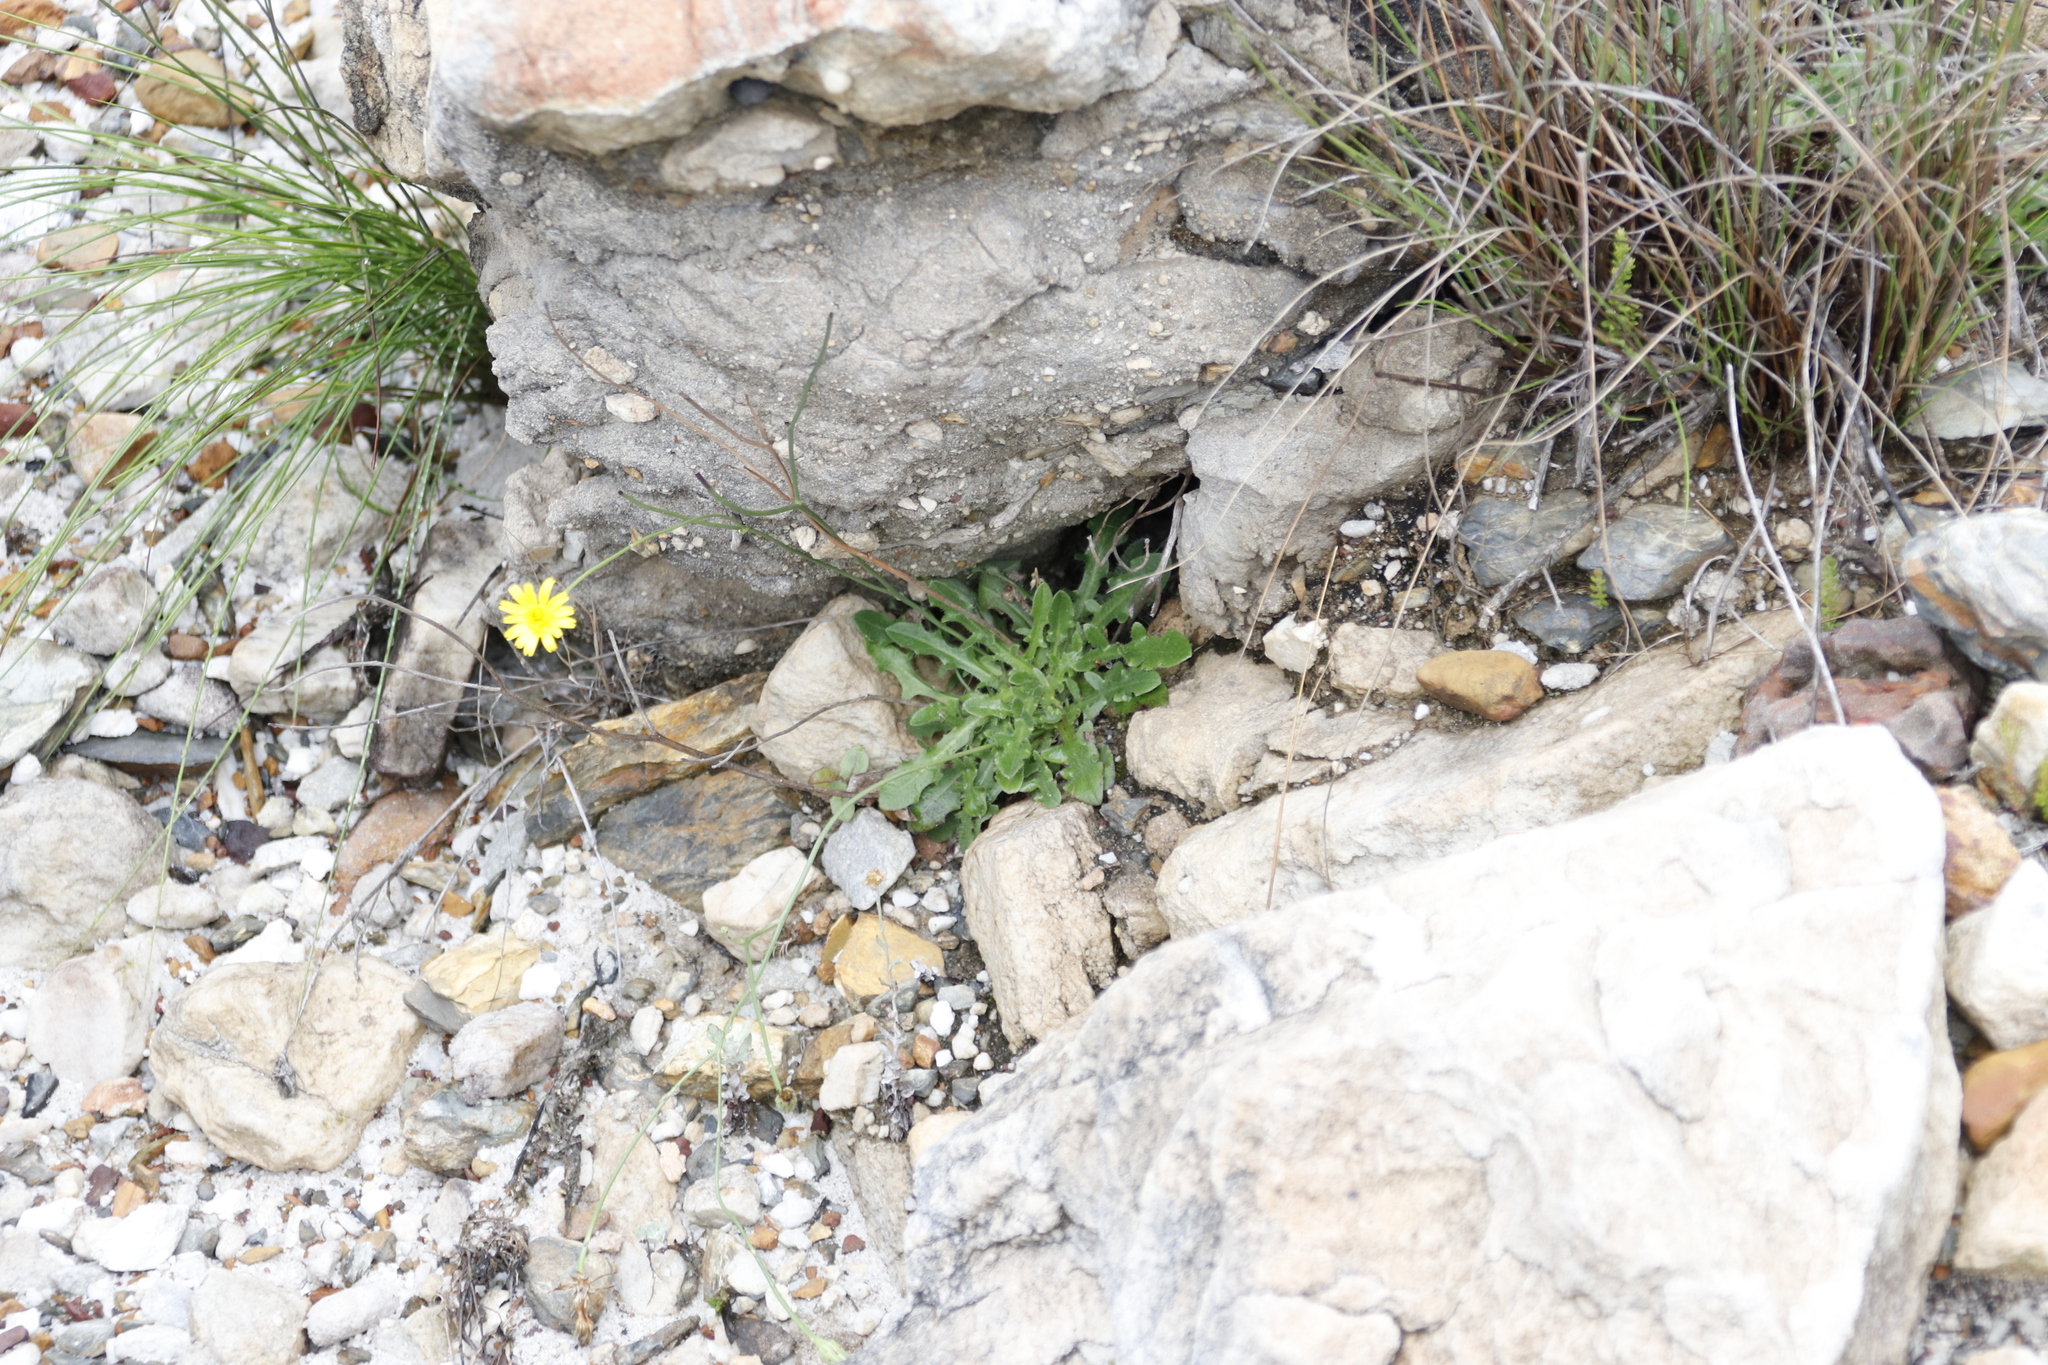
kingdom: Plantae
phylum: Tracheophyta
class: Magnoliopsida
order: Asterales
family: Asteraceae
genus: Hypochaeris
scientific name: Hypochaeris radicata
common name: Flatweed
